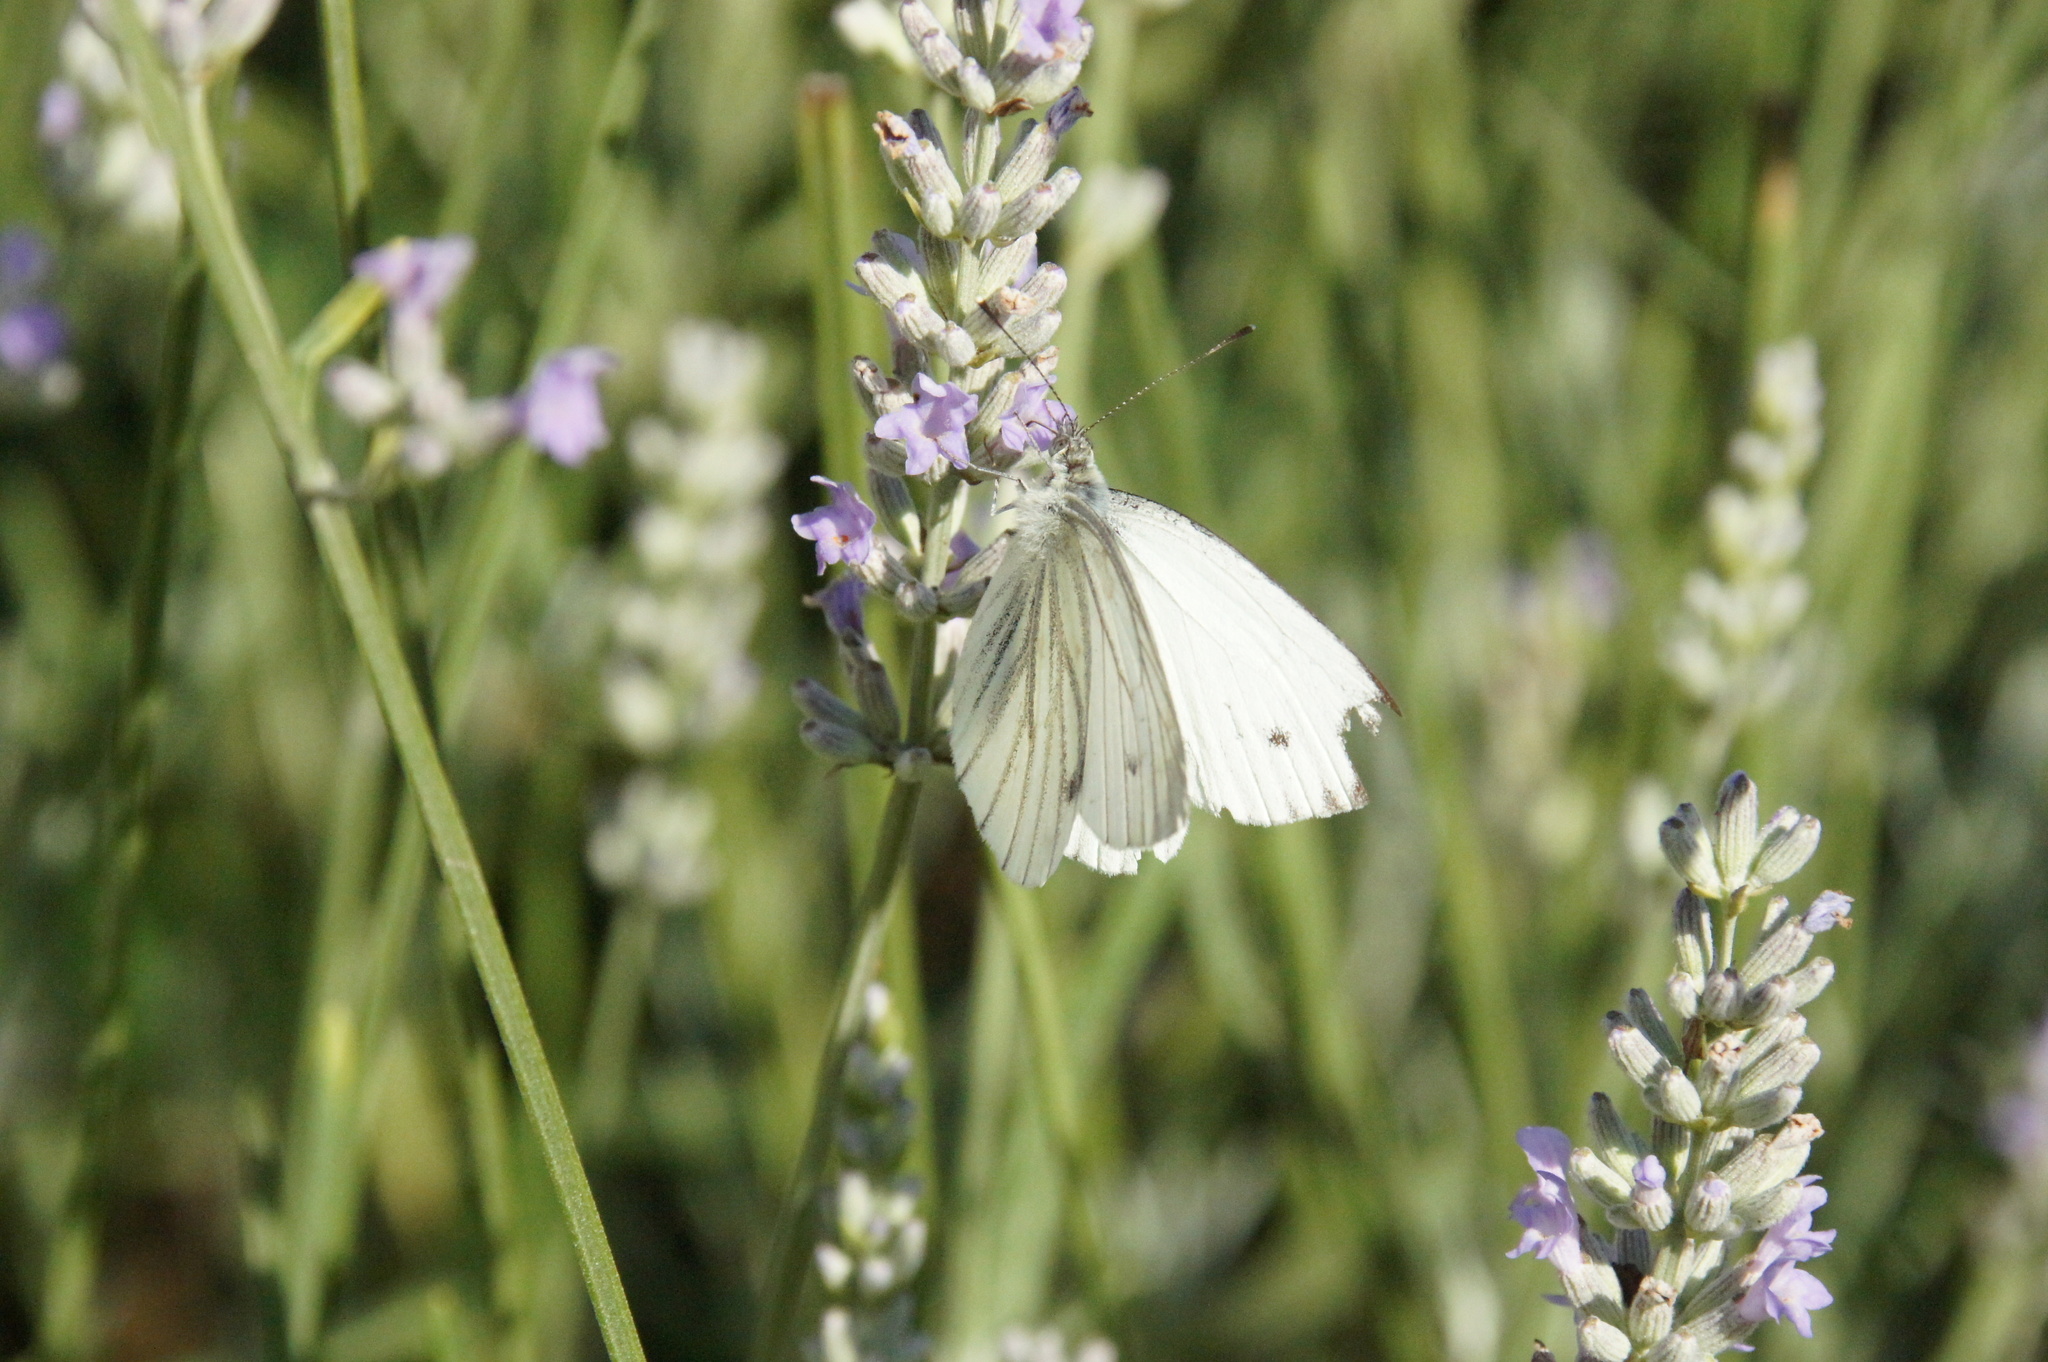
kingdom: Animalia
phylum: Arthropoda
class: Insecta
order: Lepidoptera
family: Pieridae
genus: Pieris
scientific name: Pieris napi
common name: Green-veined white
